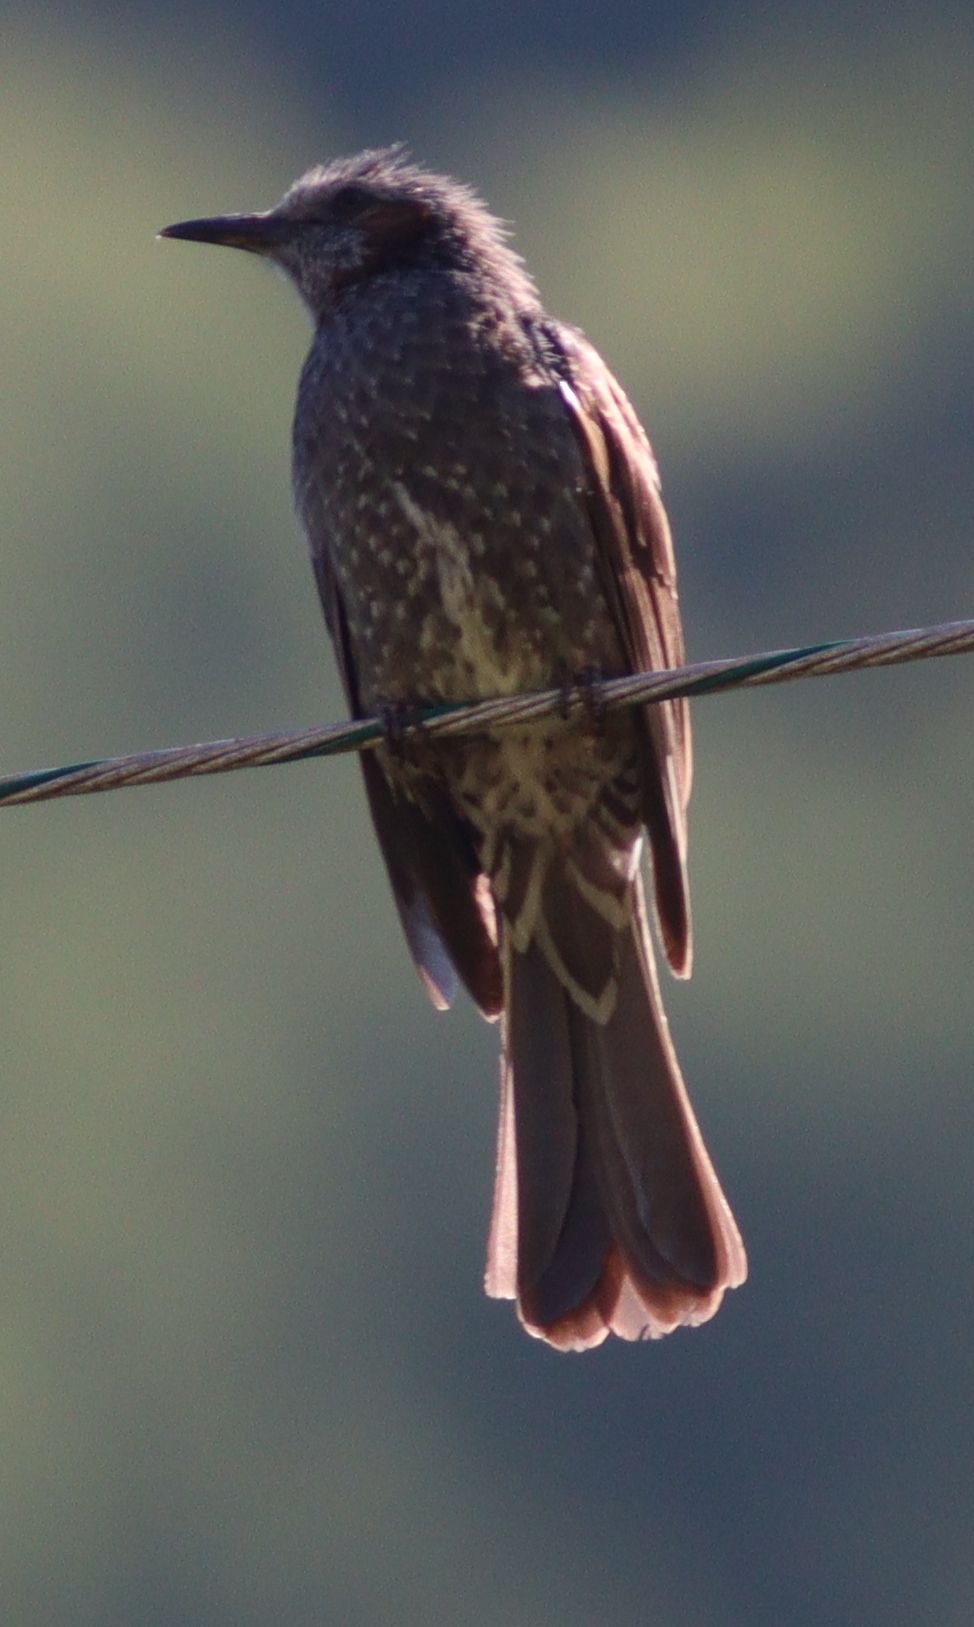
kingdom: Animalia
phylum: Chordata
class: Aves
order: Passeriformes
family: Pycnonotidae
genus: Hypsipetes
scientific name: Hypsipetes amaurotis
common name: Brown-eared bulbul
